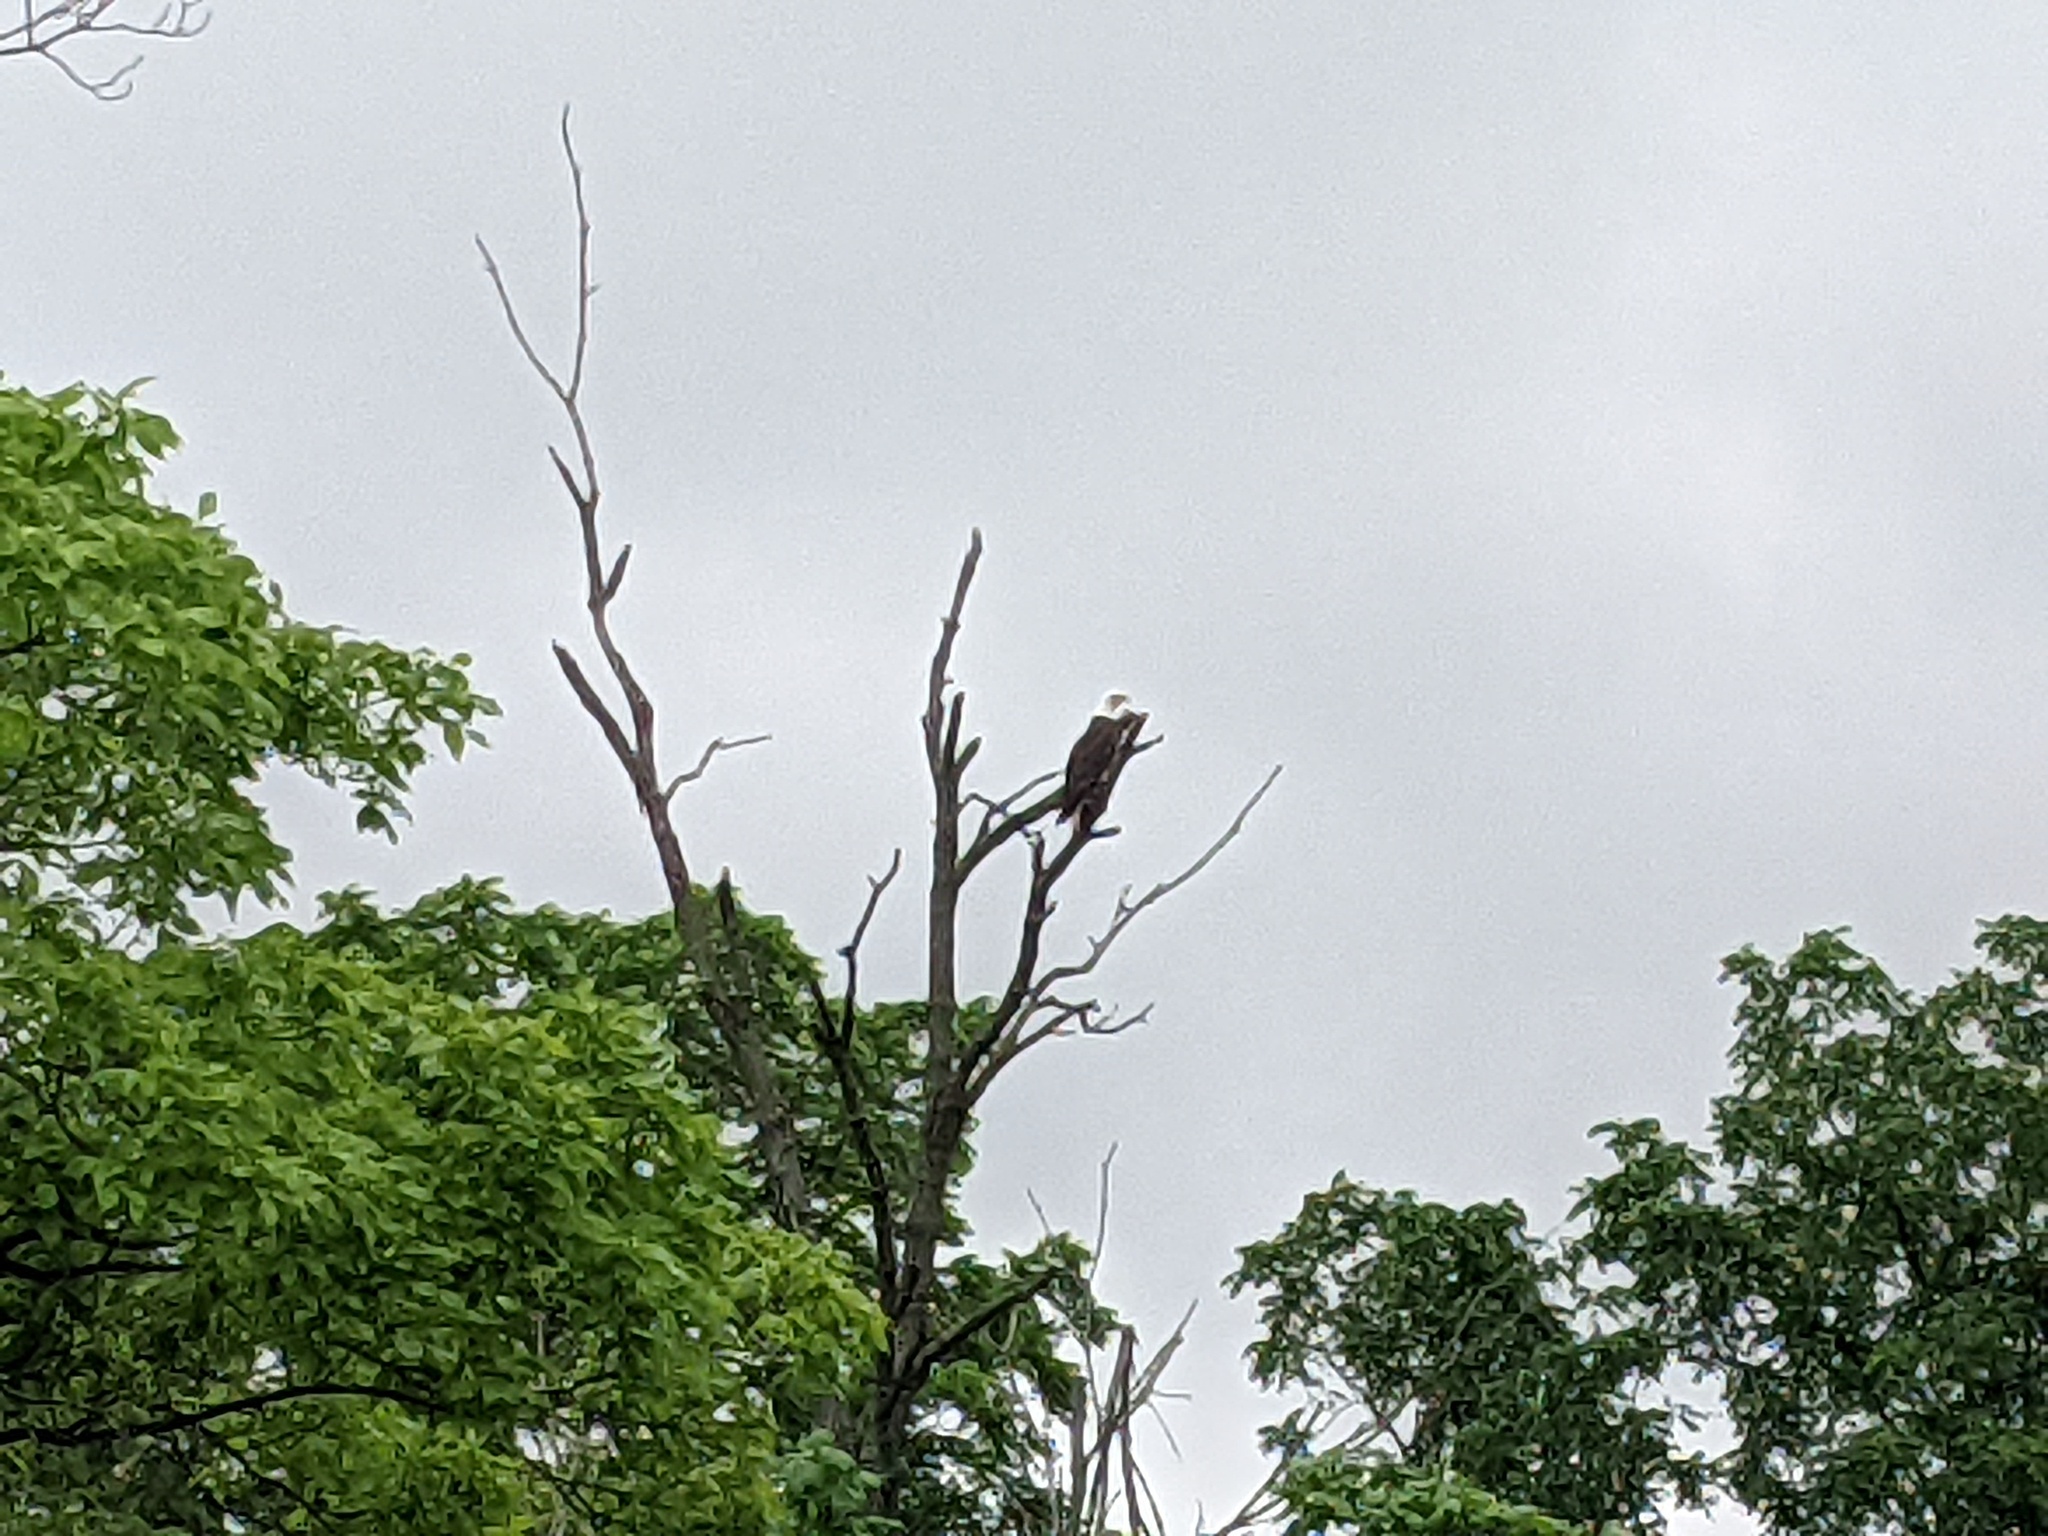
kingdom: Animalia
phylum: Chordata
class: Aves
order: Accipitriformes
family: Accipitridae
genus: Haliaeetus
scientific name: Haliaeetus leucocephalus
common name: Bald eagle
